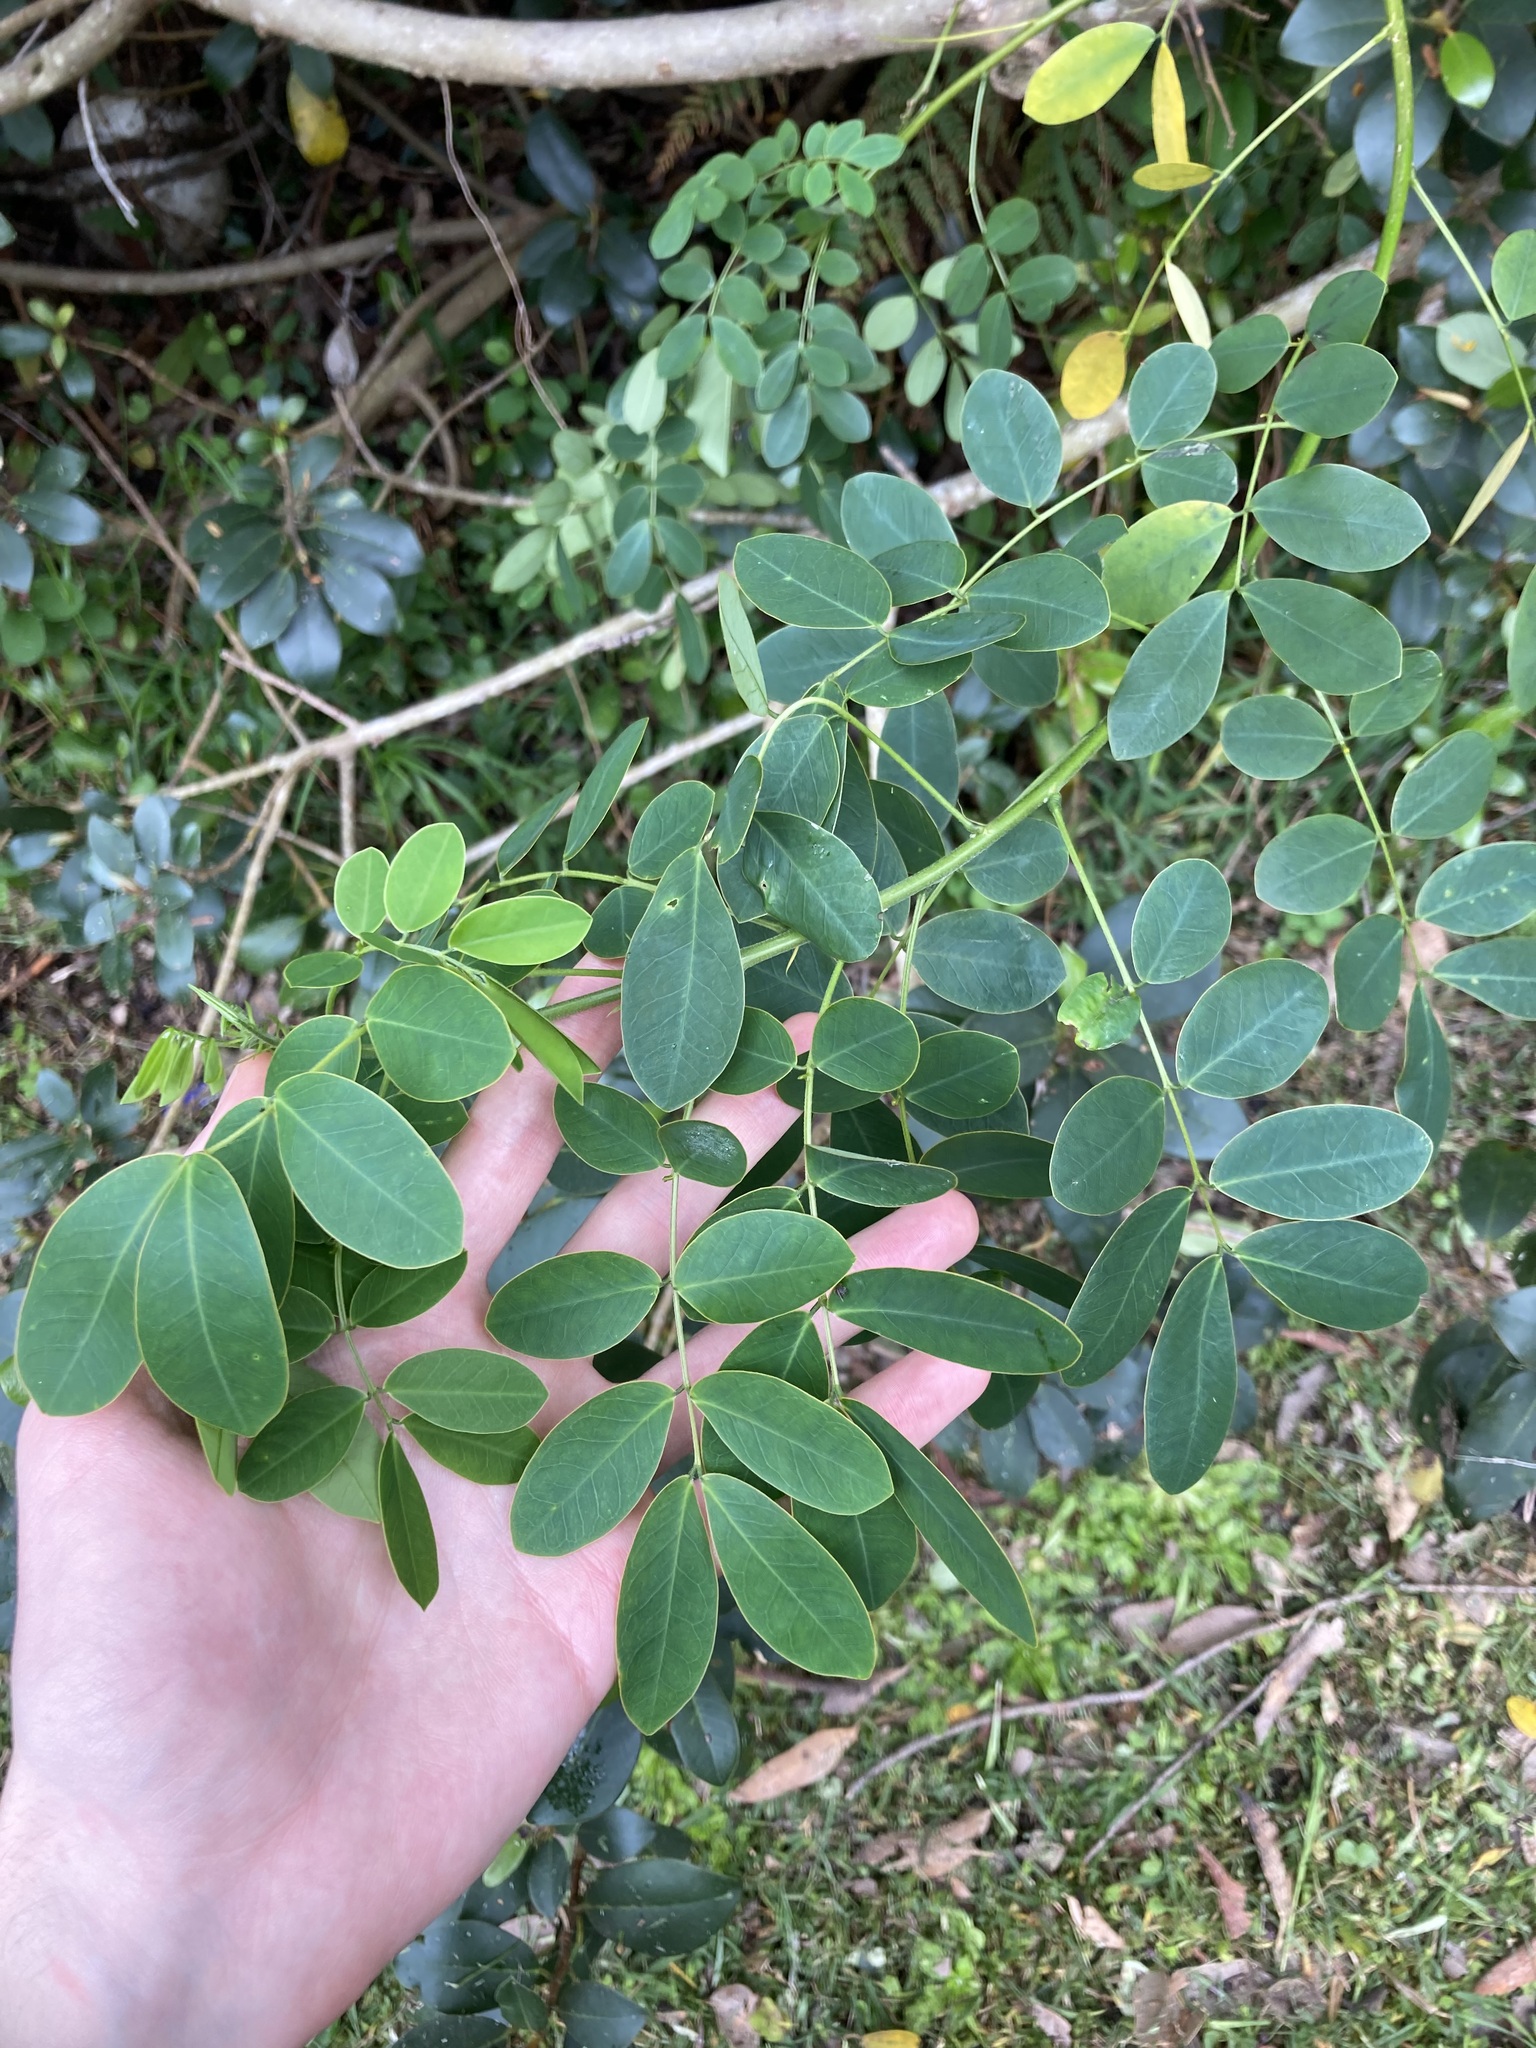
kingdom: Plantae
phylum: Tracheophyta
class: Magnoliopsida
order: Fabales
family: Fabaceae
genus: Senna
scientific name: Senna pendula
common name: Easter cassia
